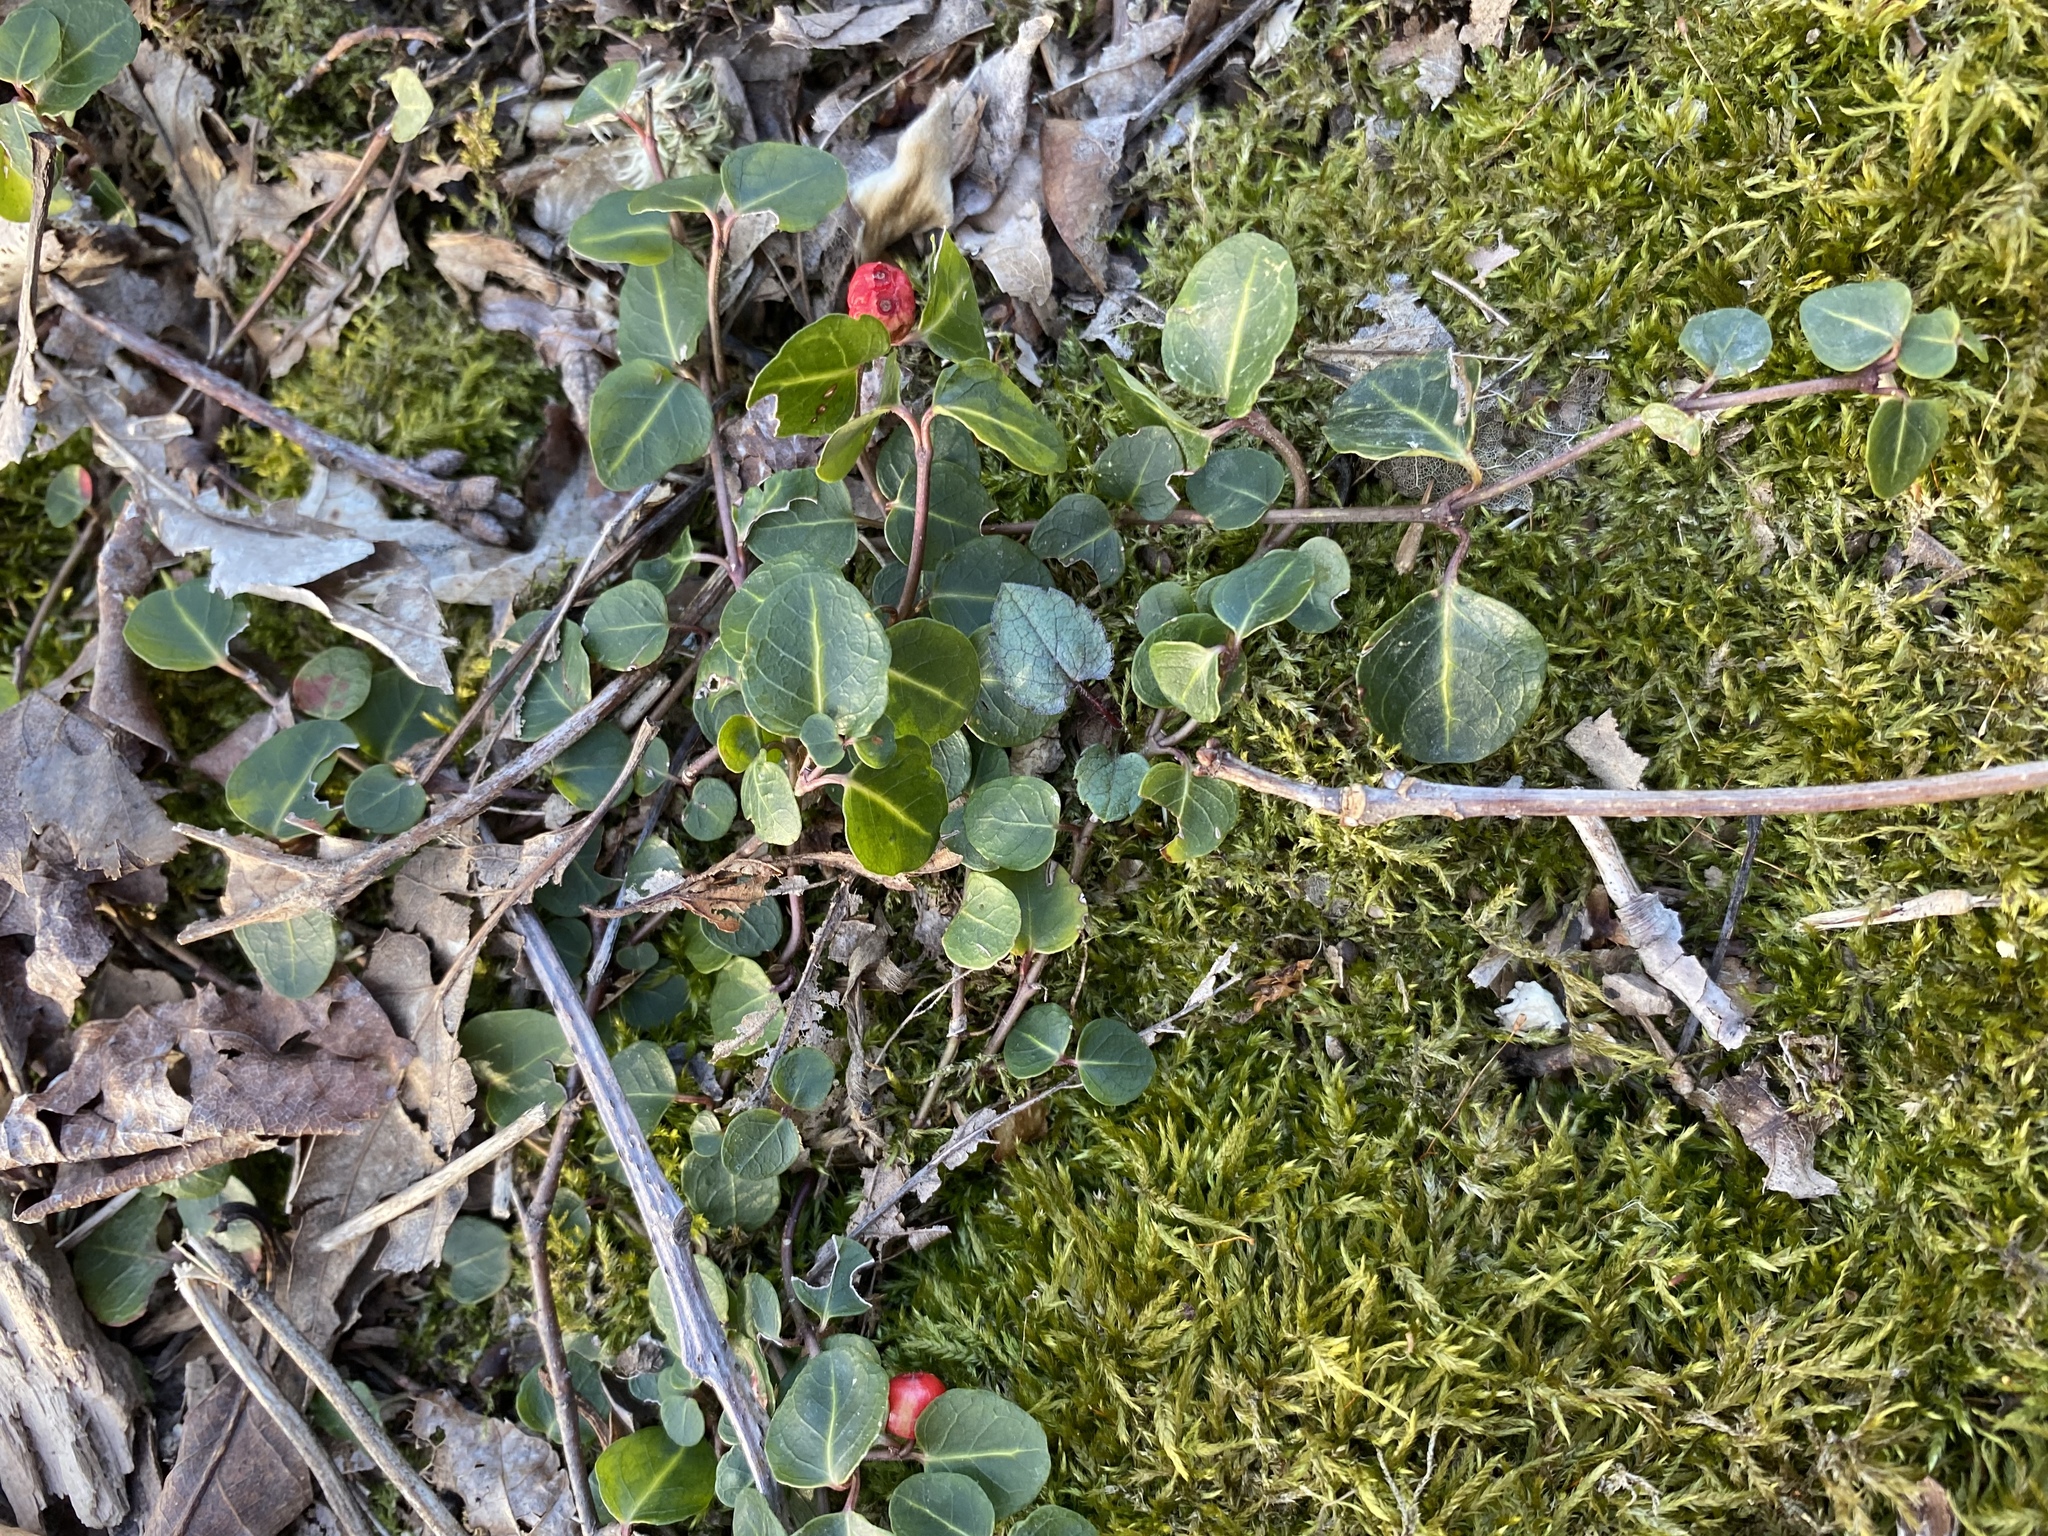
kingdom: Plantae
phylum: Tracheophyta
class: Magnoliopsida
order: Gentianales
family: Rubiaceae
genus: Mitchella
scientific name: Mitchella repens
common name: Partridge-berry
